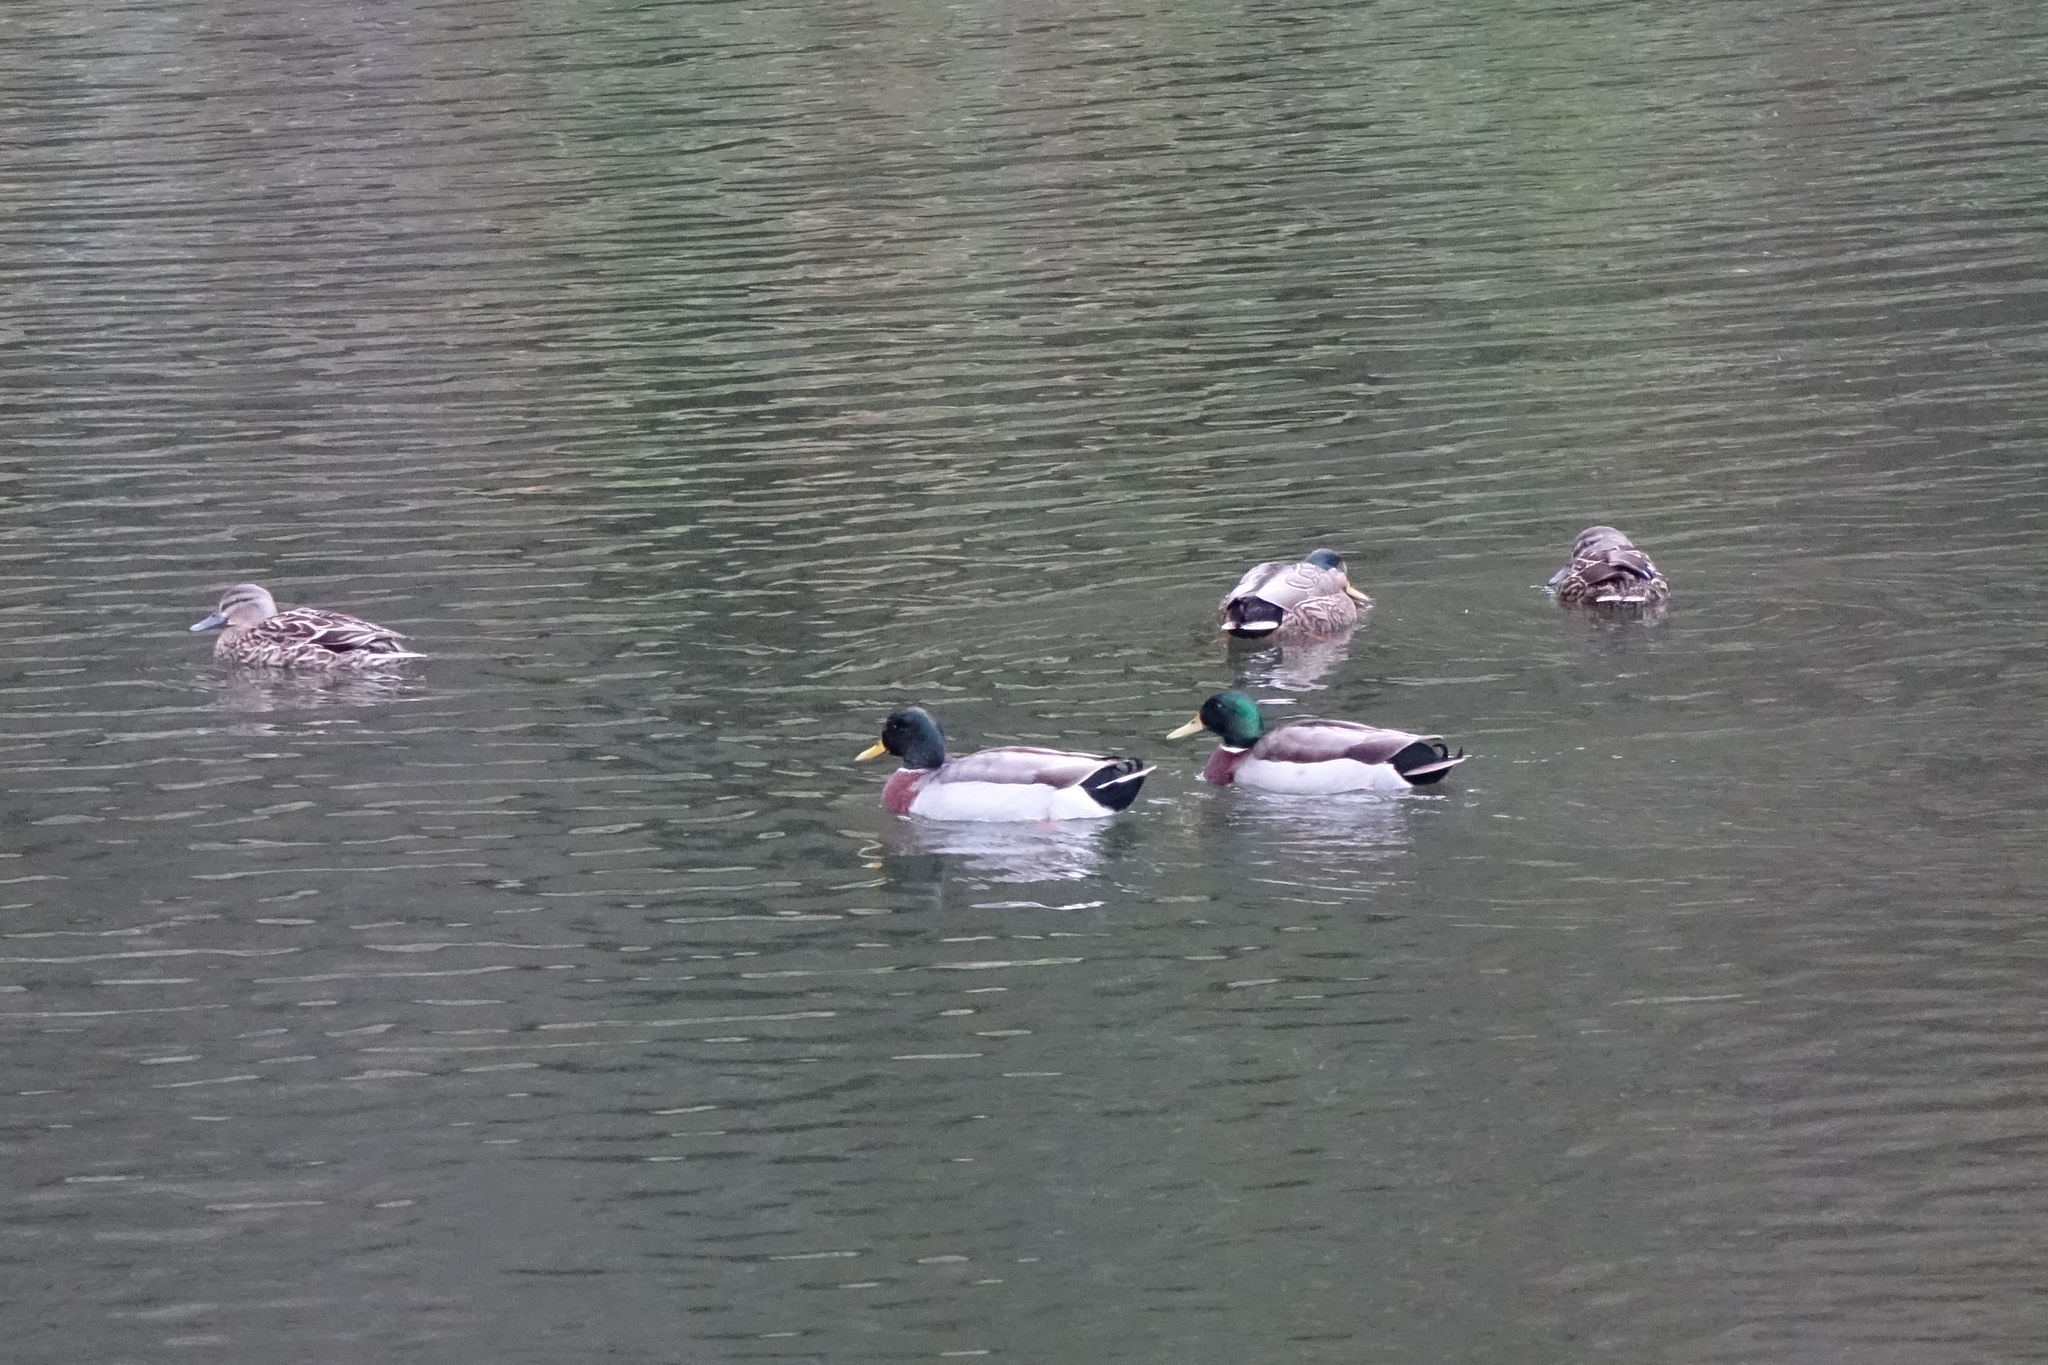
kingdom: Animalia
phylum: Chordata
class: Aves
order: Anseriformes
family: Anatidae
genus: Anas
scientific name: Anas platyrhynchos
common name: Mallard
